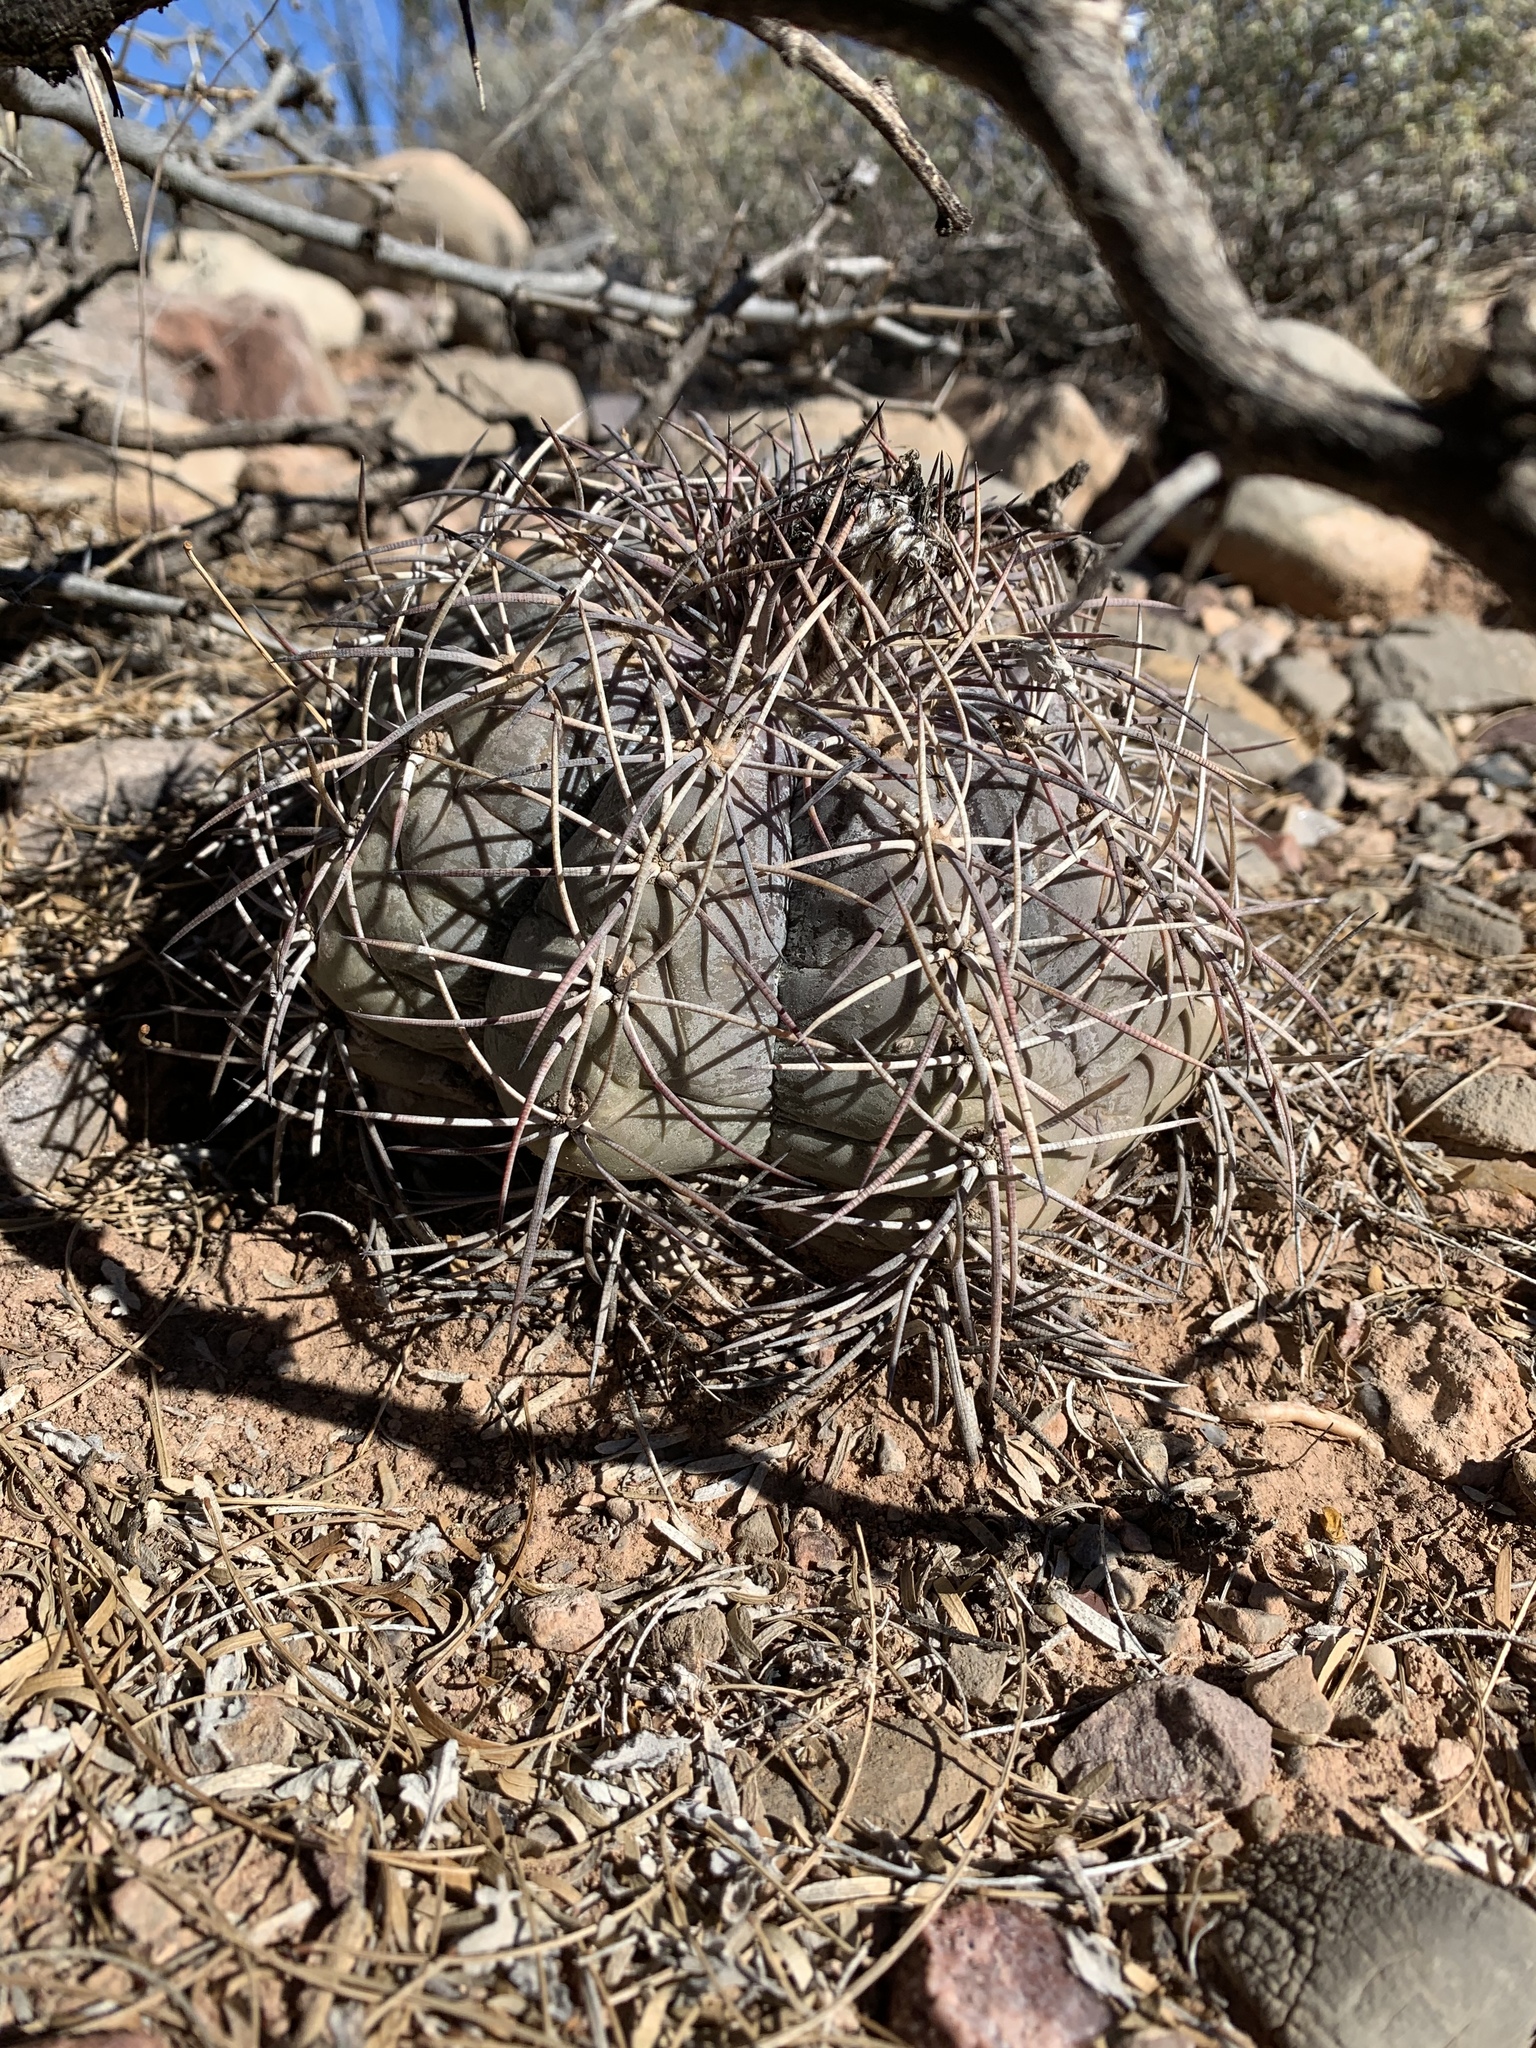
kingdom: Plantae
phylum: Tracheophyta
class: Magnoliopsida
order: Caryophyllales
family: Cactaceae
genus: Echinocactus
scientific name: Echinocactus horizonthalonius
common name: Devilshead
